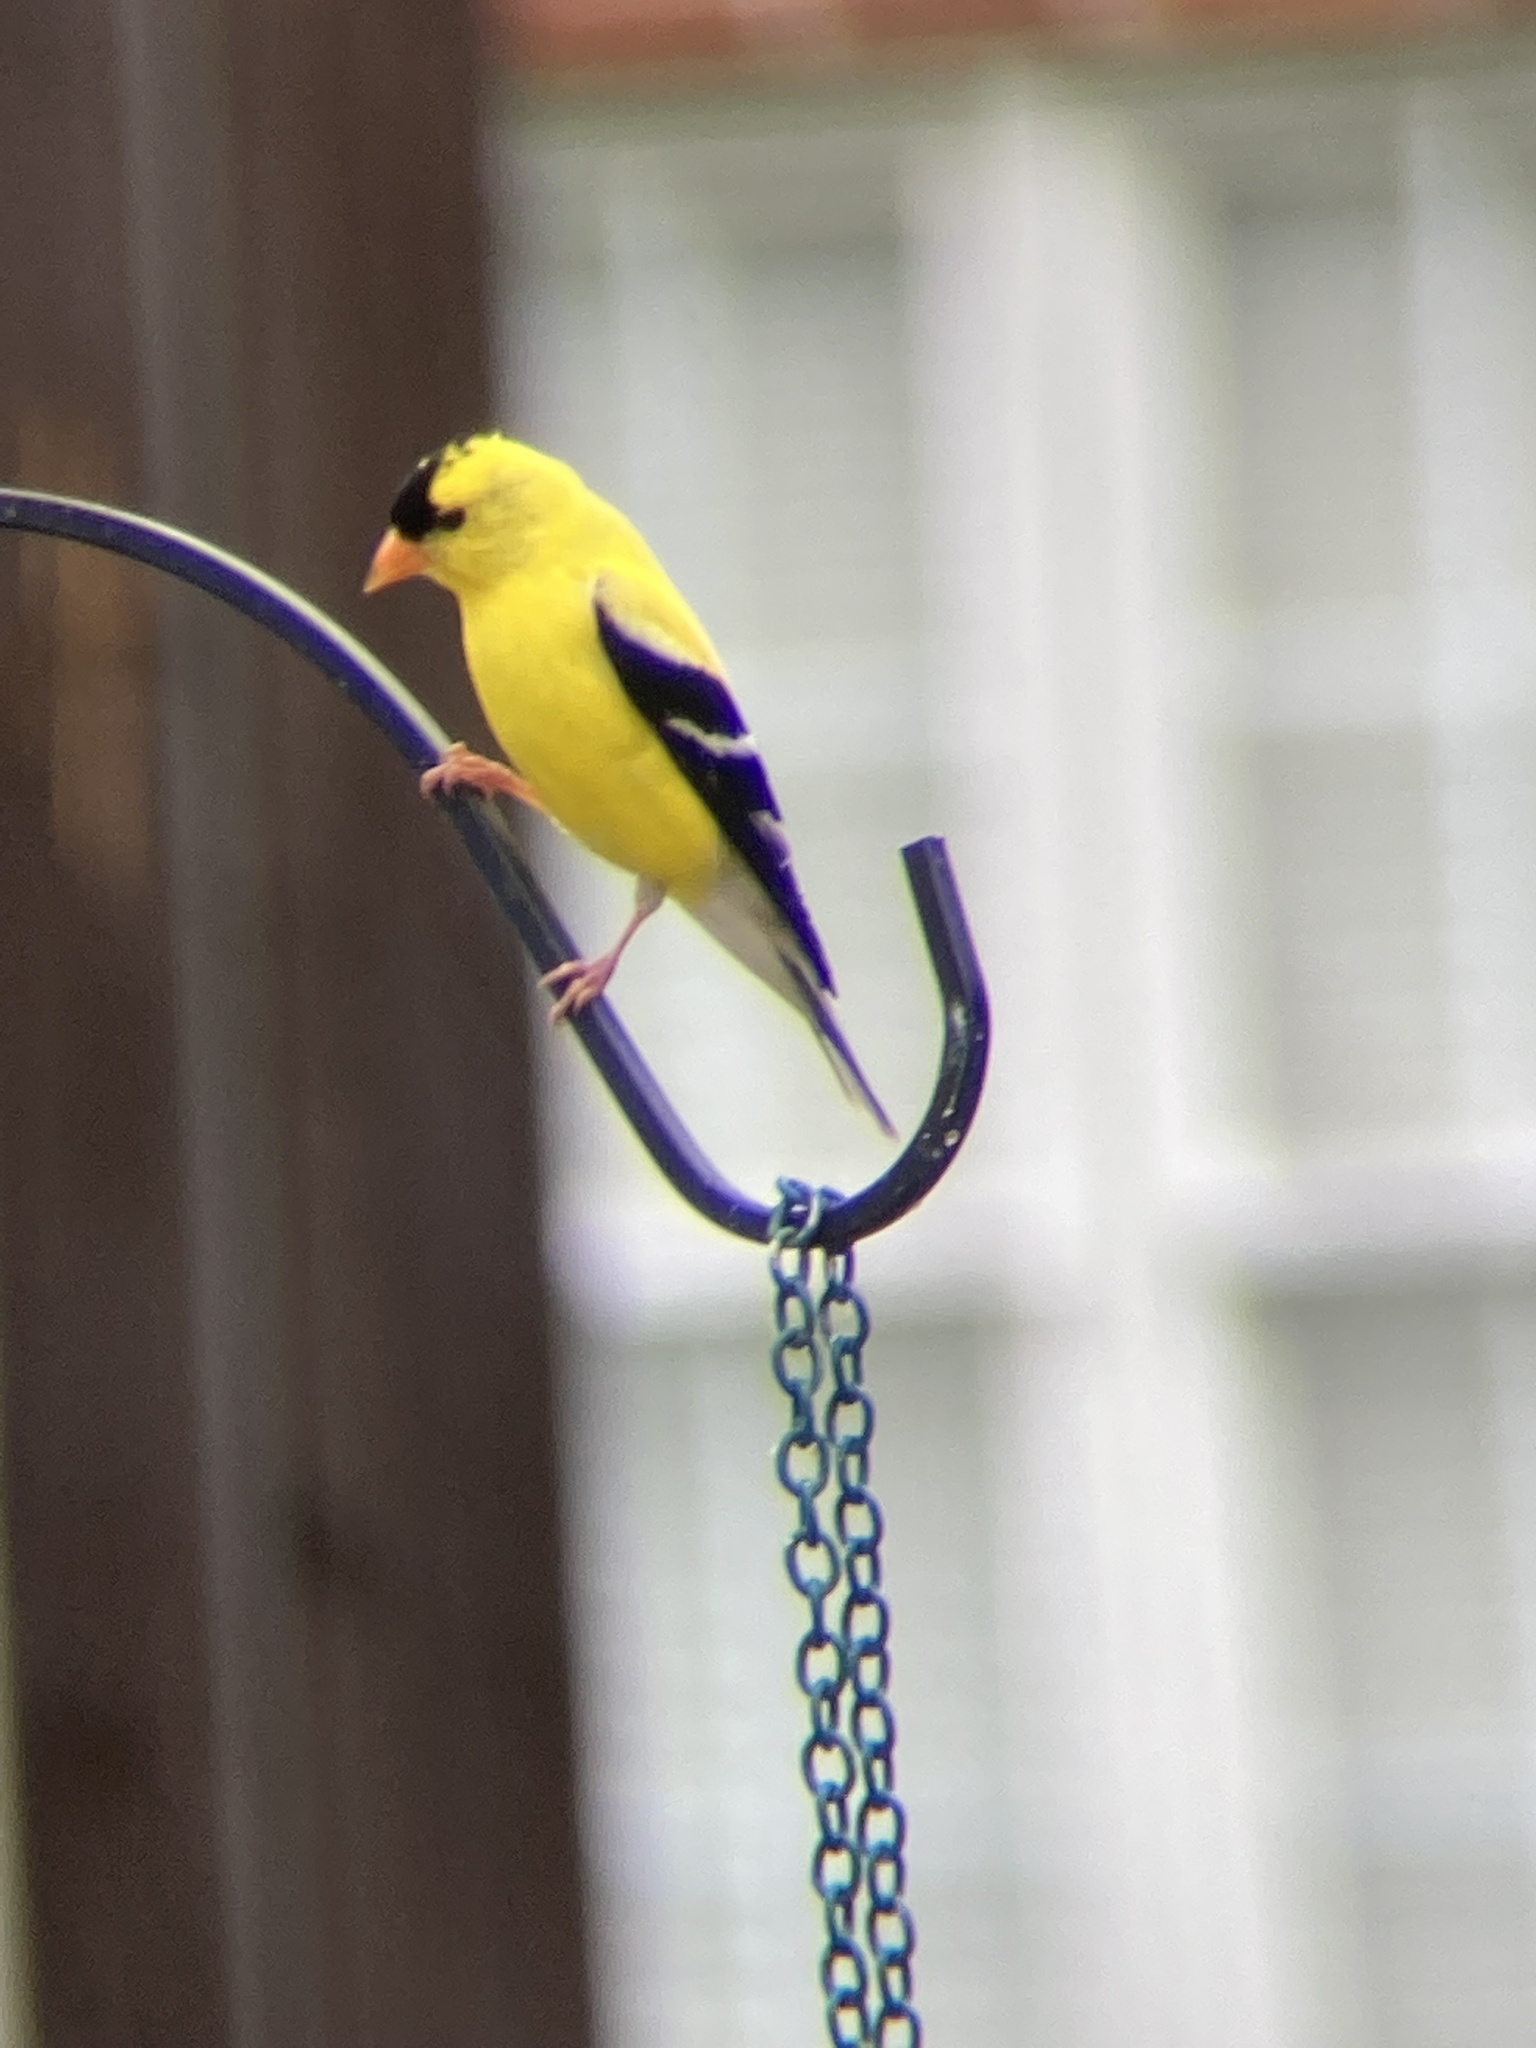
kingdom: Animalia
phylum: Chordata
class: Aves
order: Passeriformes
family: Fringillidae
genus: Spinus
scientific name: Spinus tristis
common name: American goldfinch
